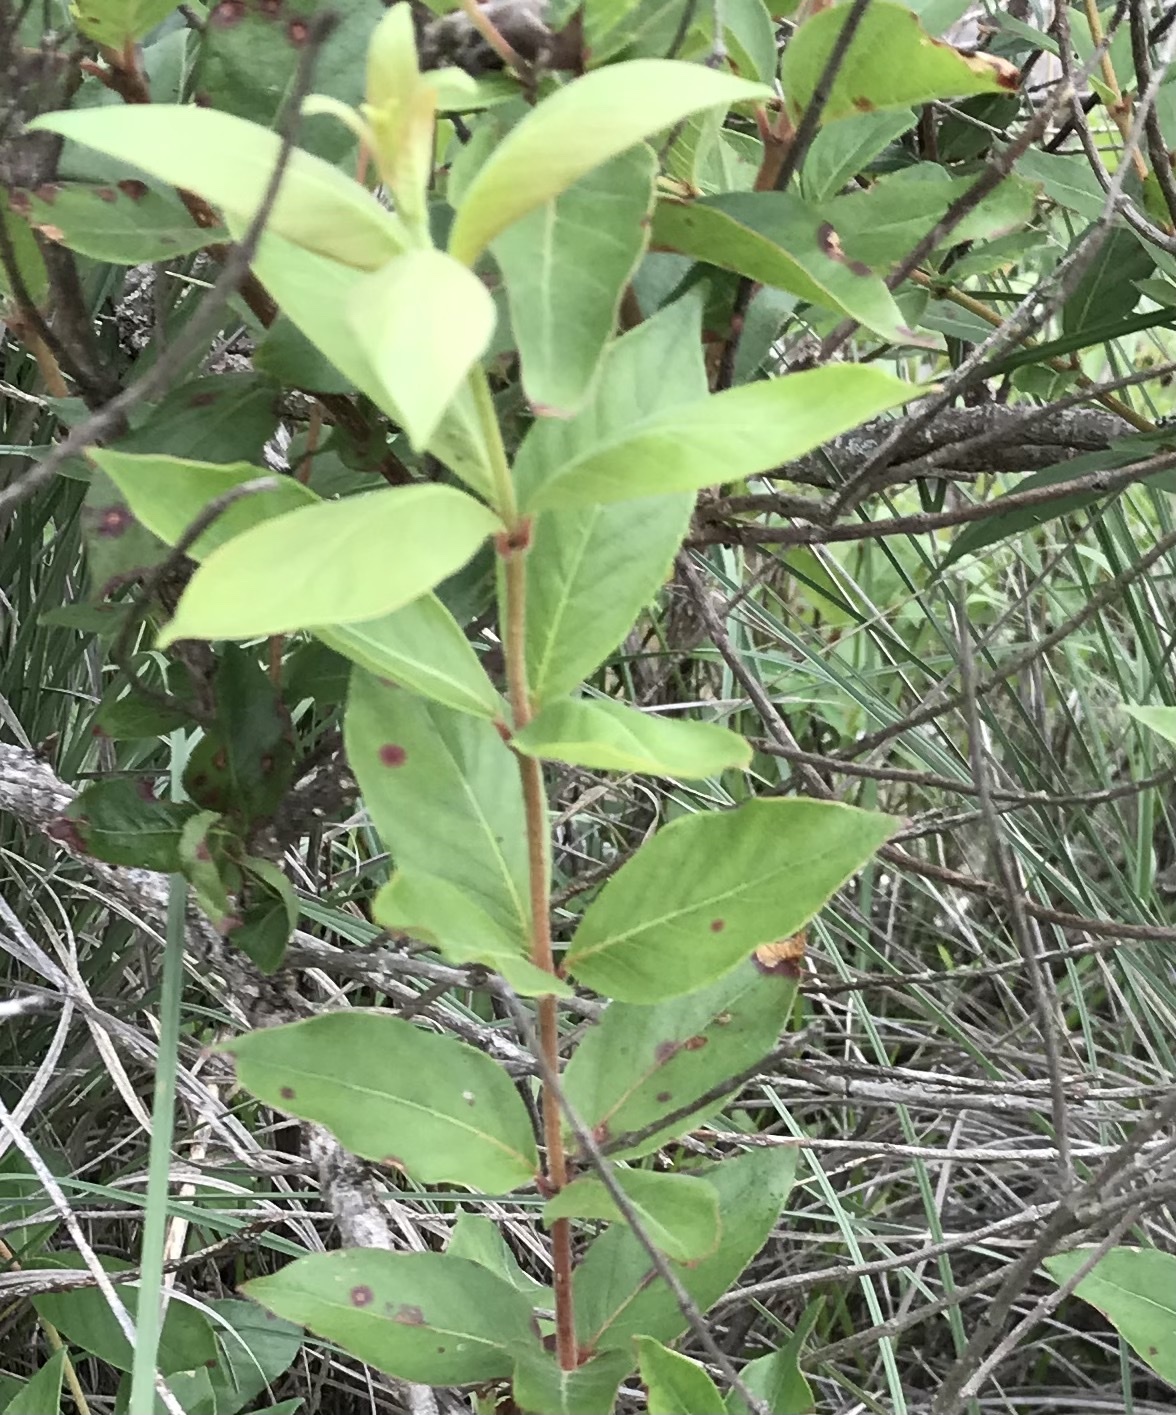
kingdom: Plantae
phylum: Tracheophyta
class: Magnoliopsida
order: Gentianales
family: Rubiaceae
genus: Cephalanthus
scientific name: Cephalanthus occidentalis
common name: Button-willow
